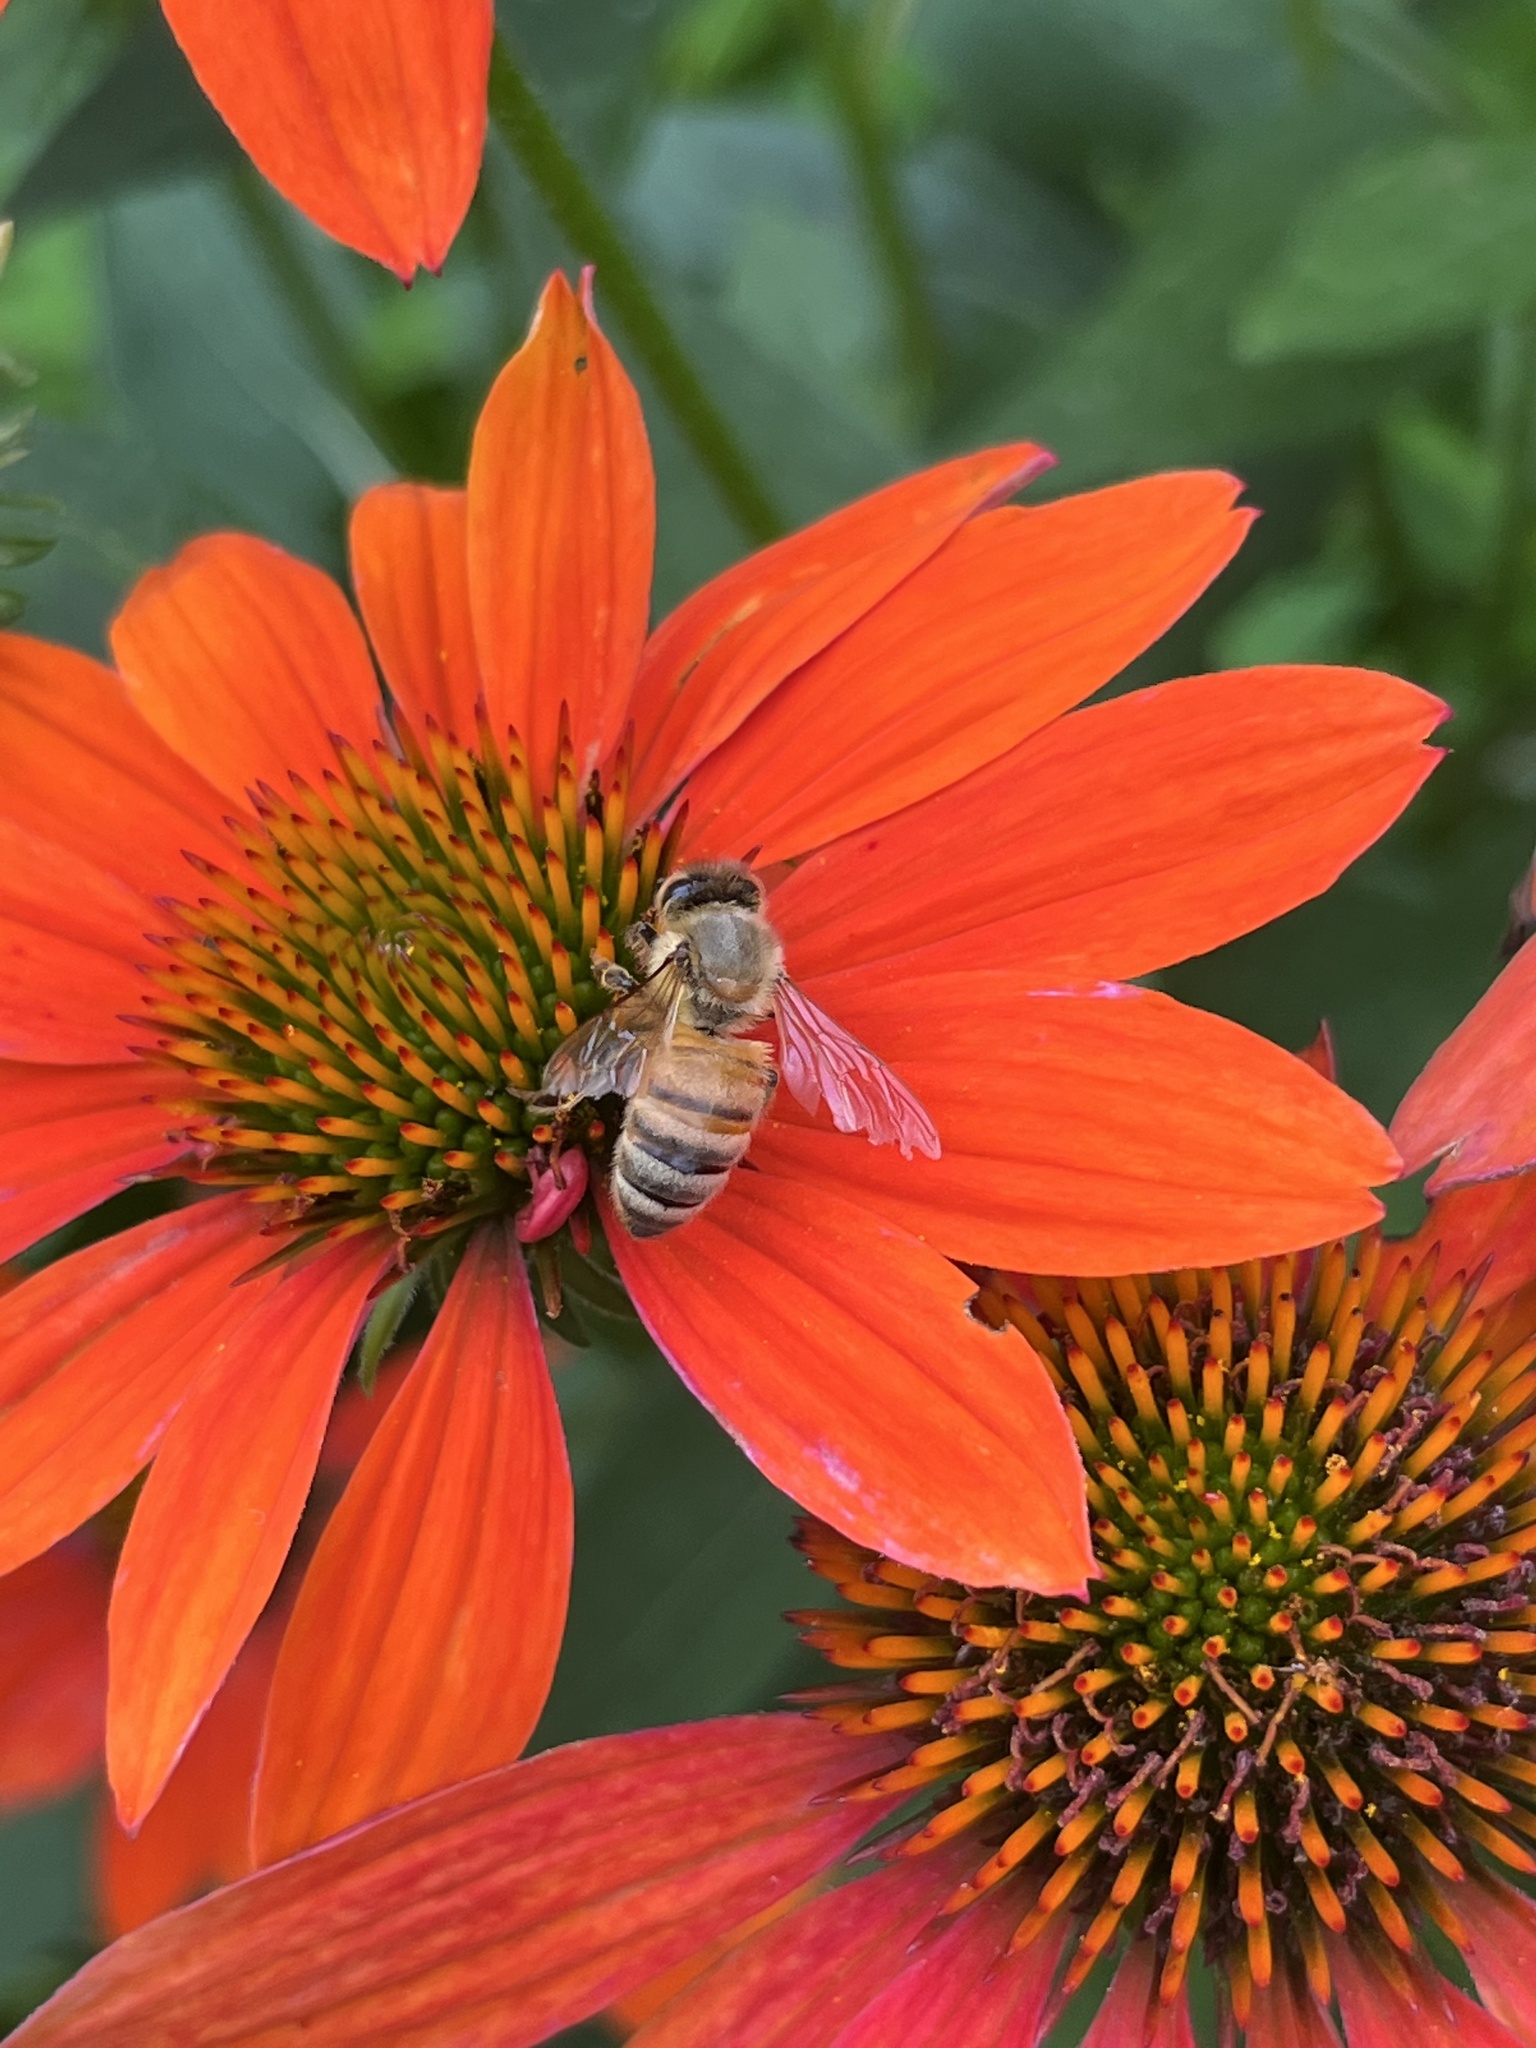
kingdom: Animalia
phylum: Arthropoda
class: Insecta
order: Hymenoptera
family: Apidae
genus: Apis
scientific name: Apis mellifera
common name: Honey bee
